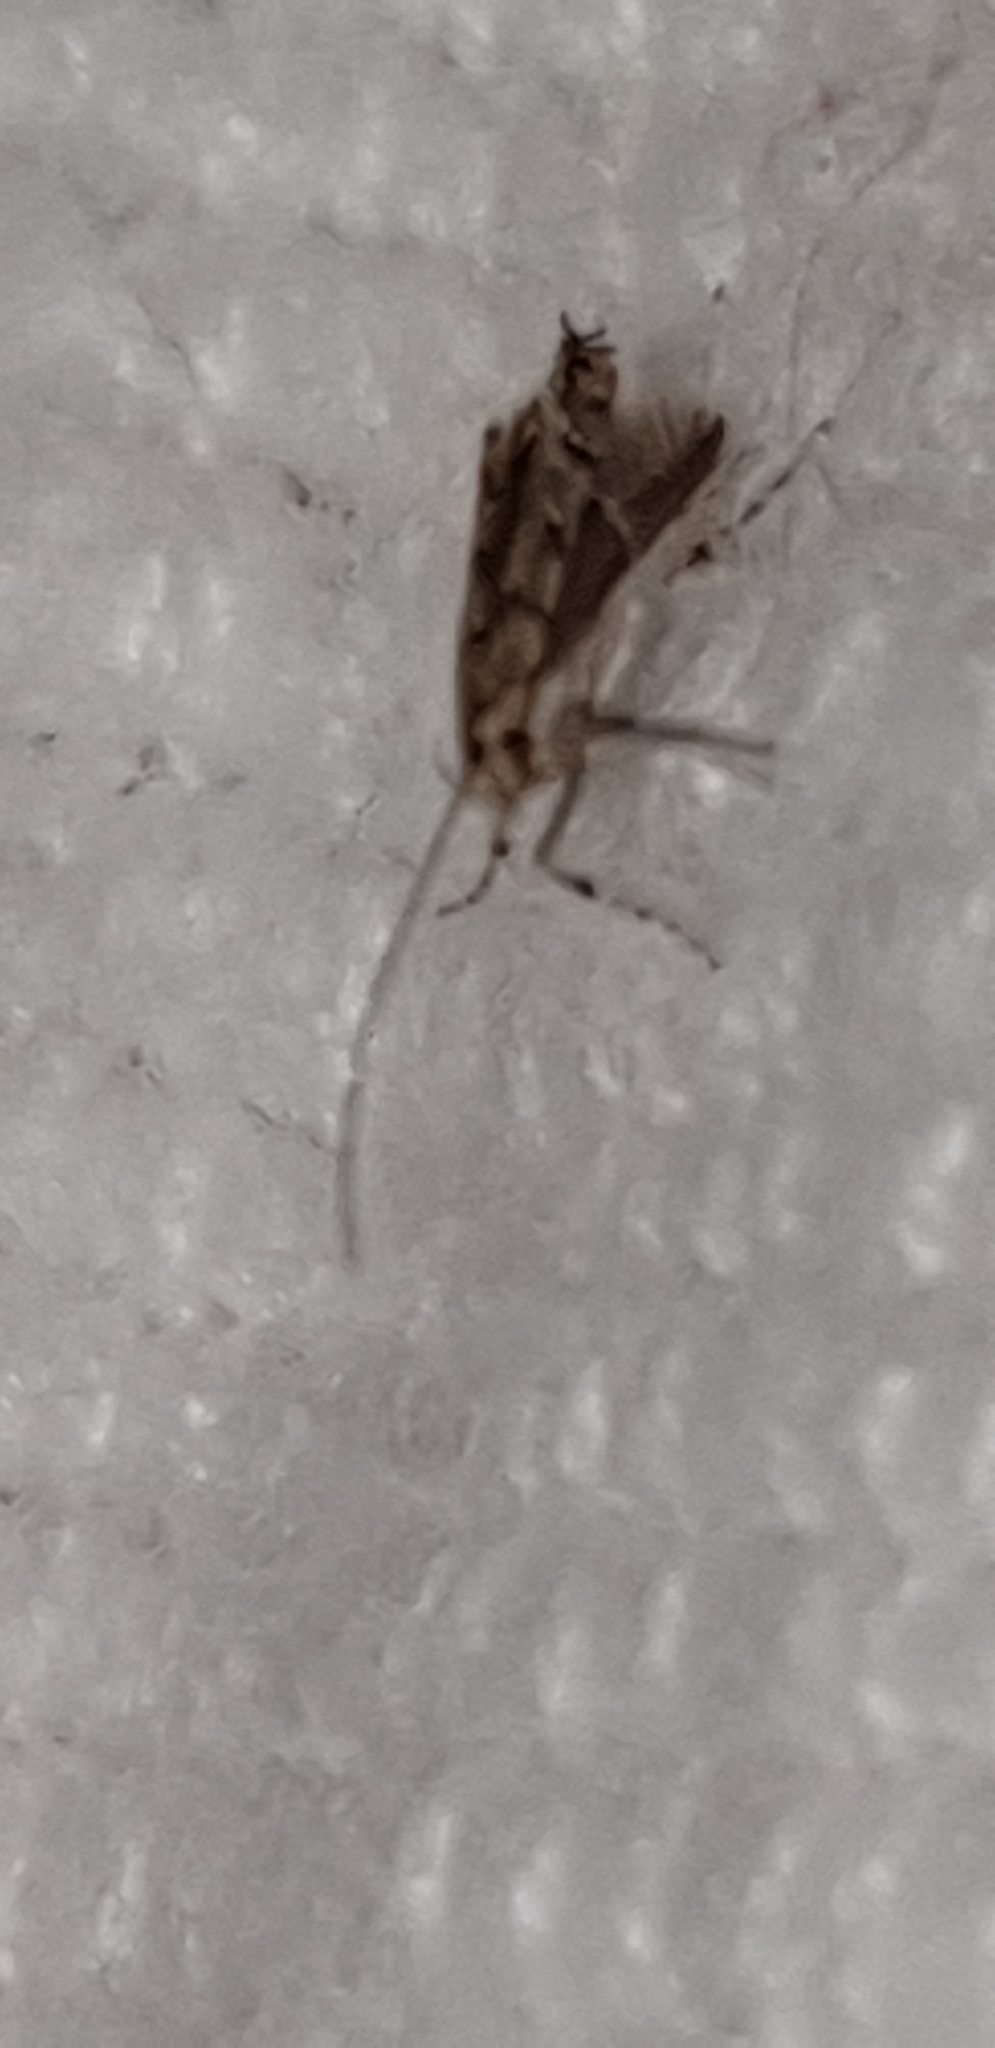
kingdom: Animalia
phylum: Arthropoda
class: Insecta
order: Lepidoptera
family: Gracillariidae
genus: Acrocercops
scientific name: Acrocercops brongniardella
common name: Brown oak slender
